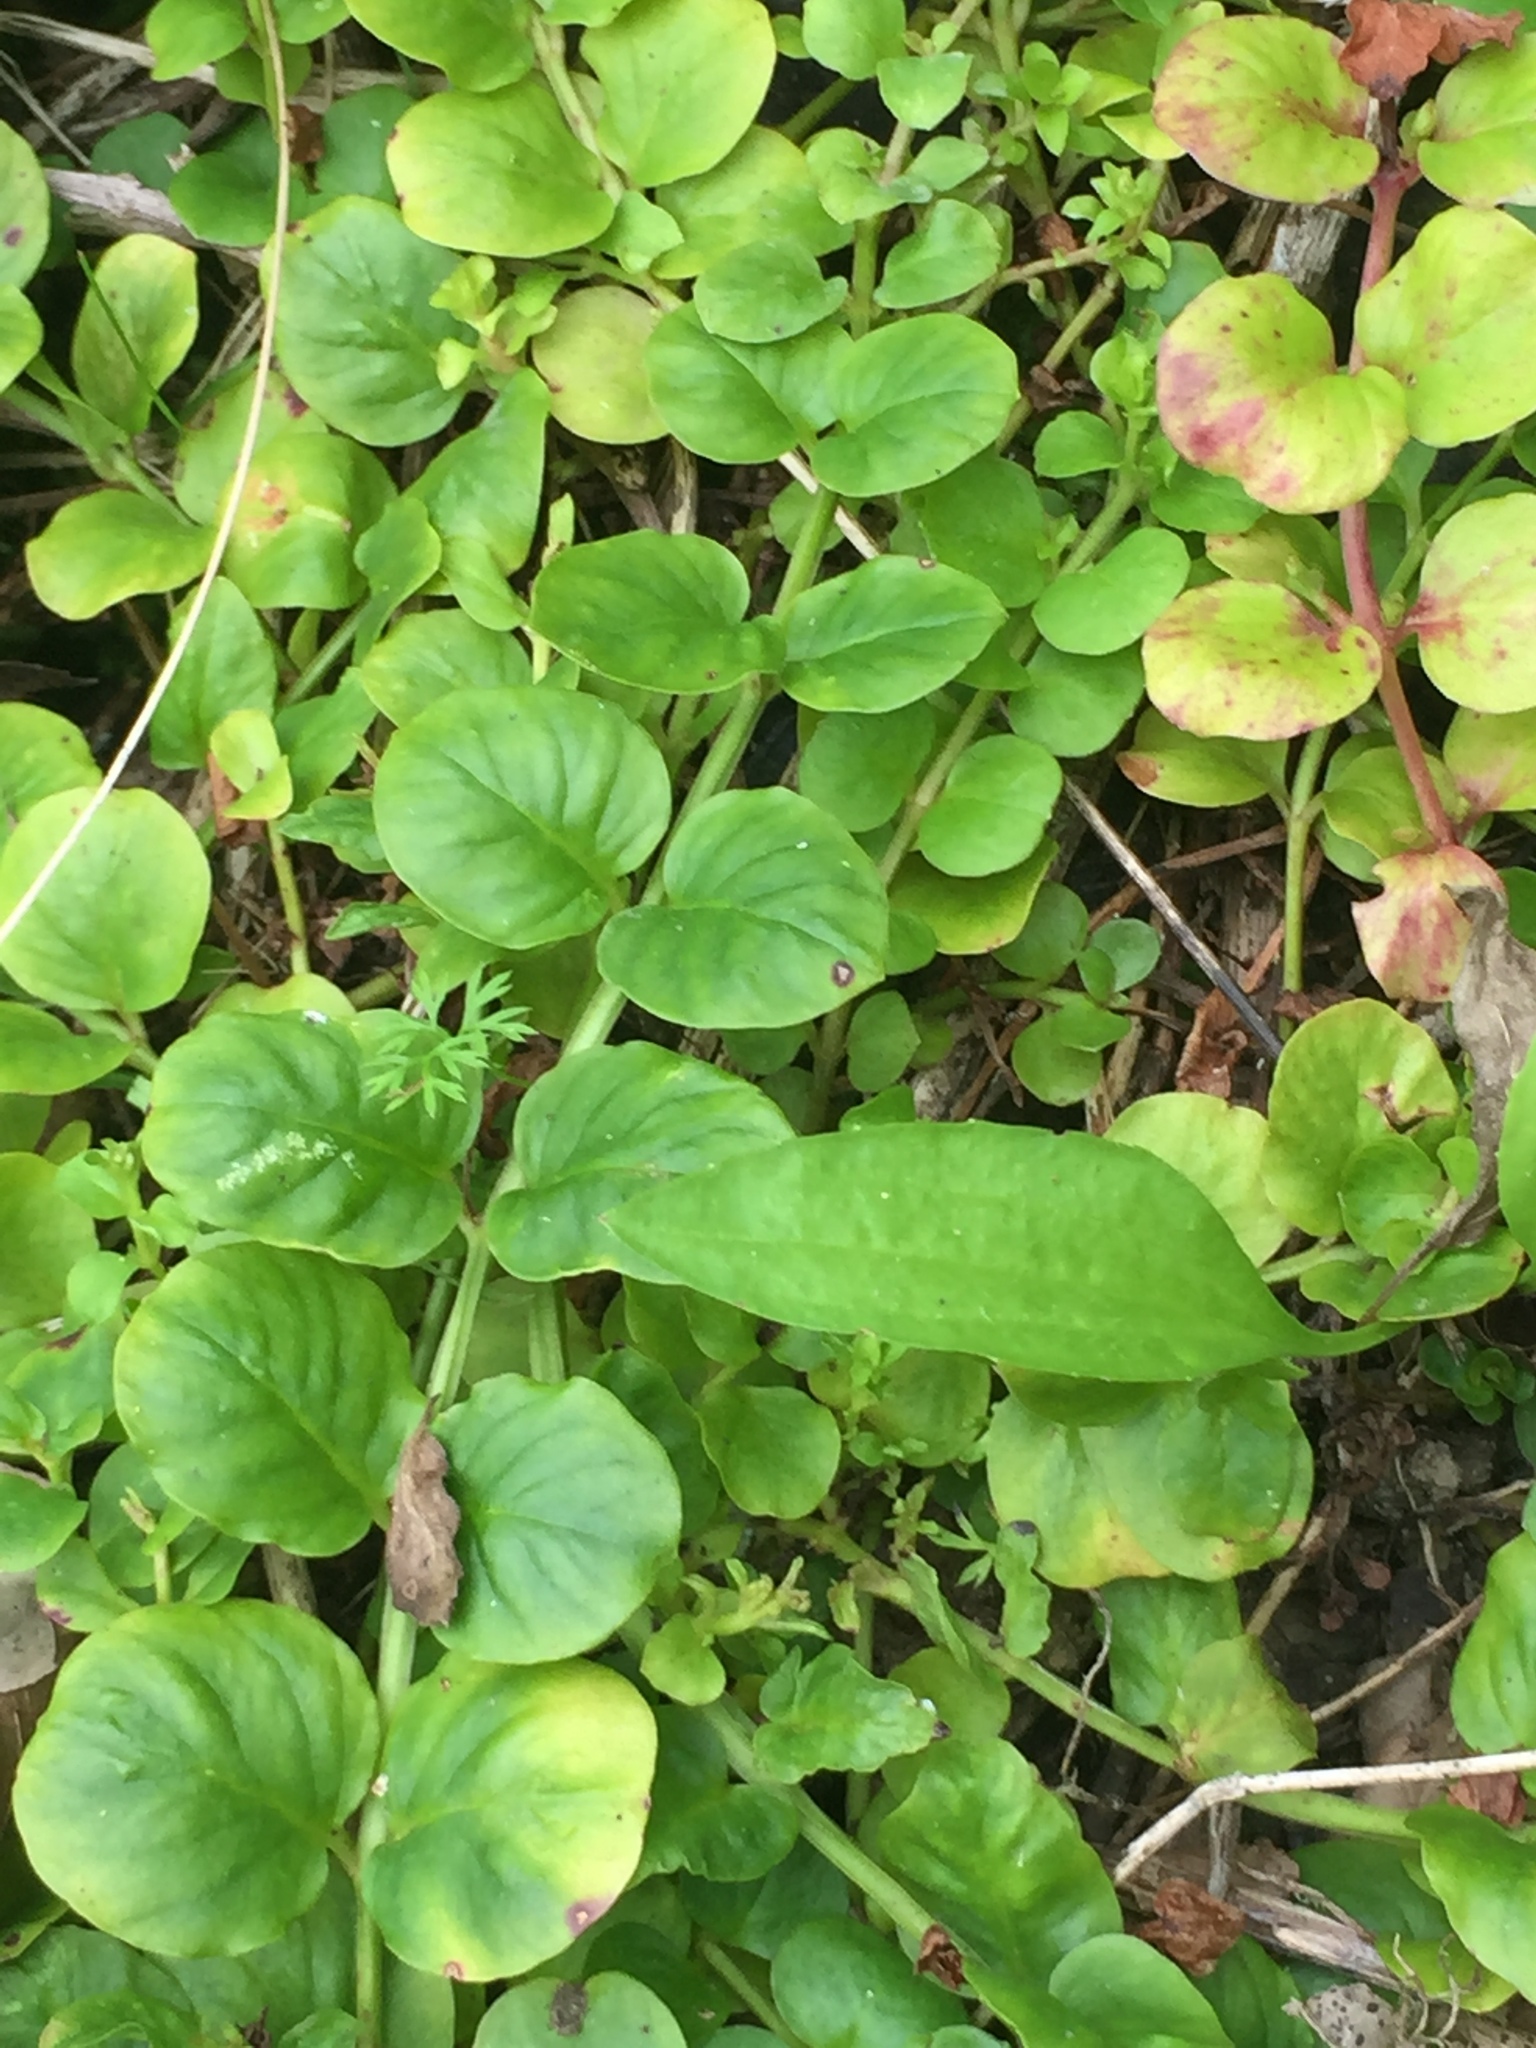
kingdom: Plantae
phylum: Tracheophyta
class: Magnoliopsida
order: Ericales
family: Primulaceae
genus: Lysimachia
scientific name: Lysimachia nummularia
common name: Moneywort
